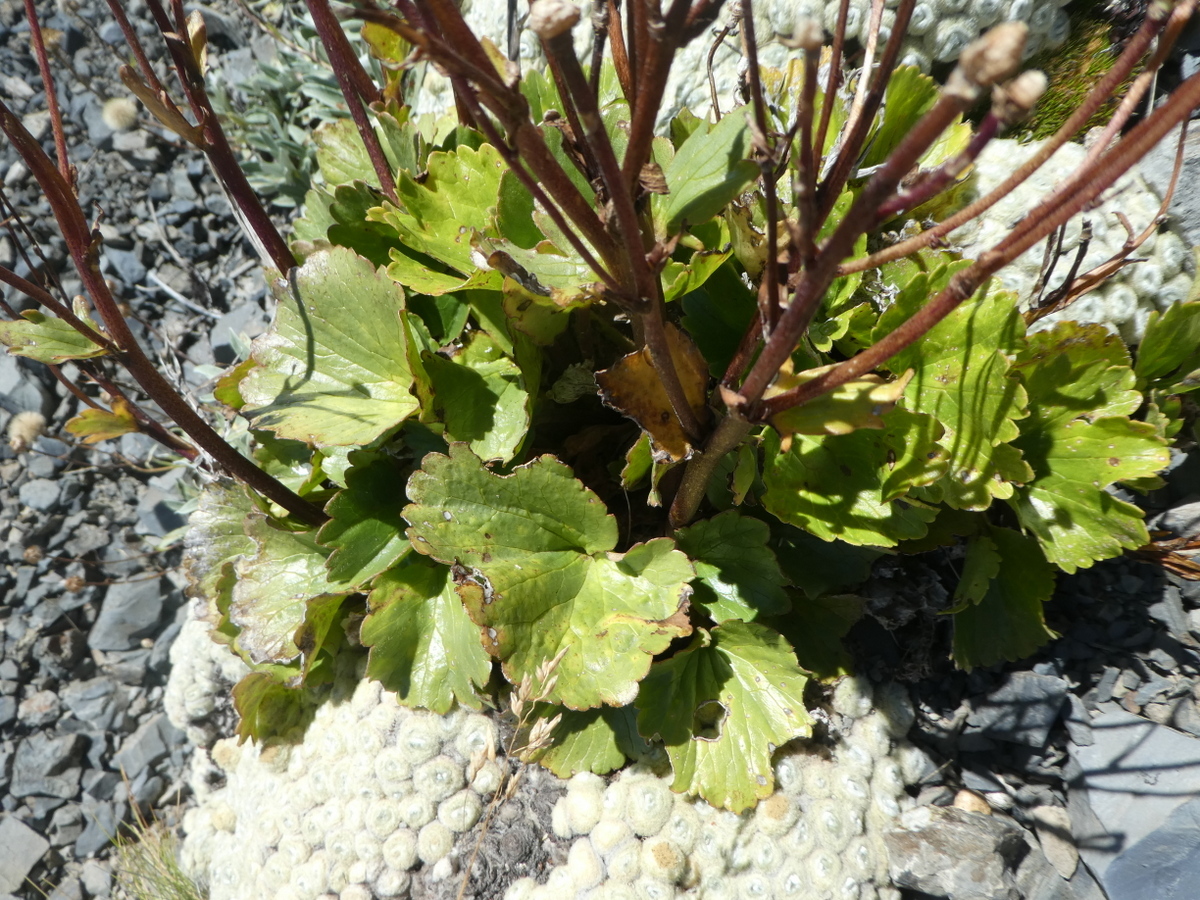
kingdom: Plantae
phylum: Tracheophyta
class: Magnoliopsida
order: Ranunculales
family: Ranunculaceae
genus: Ranunculus
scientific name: Ranunculus insignis
